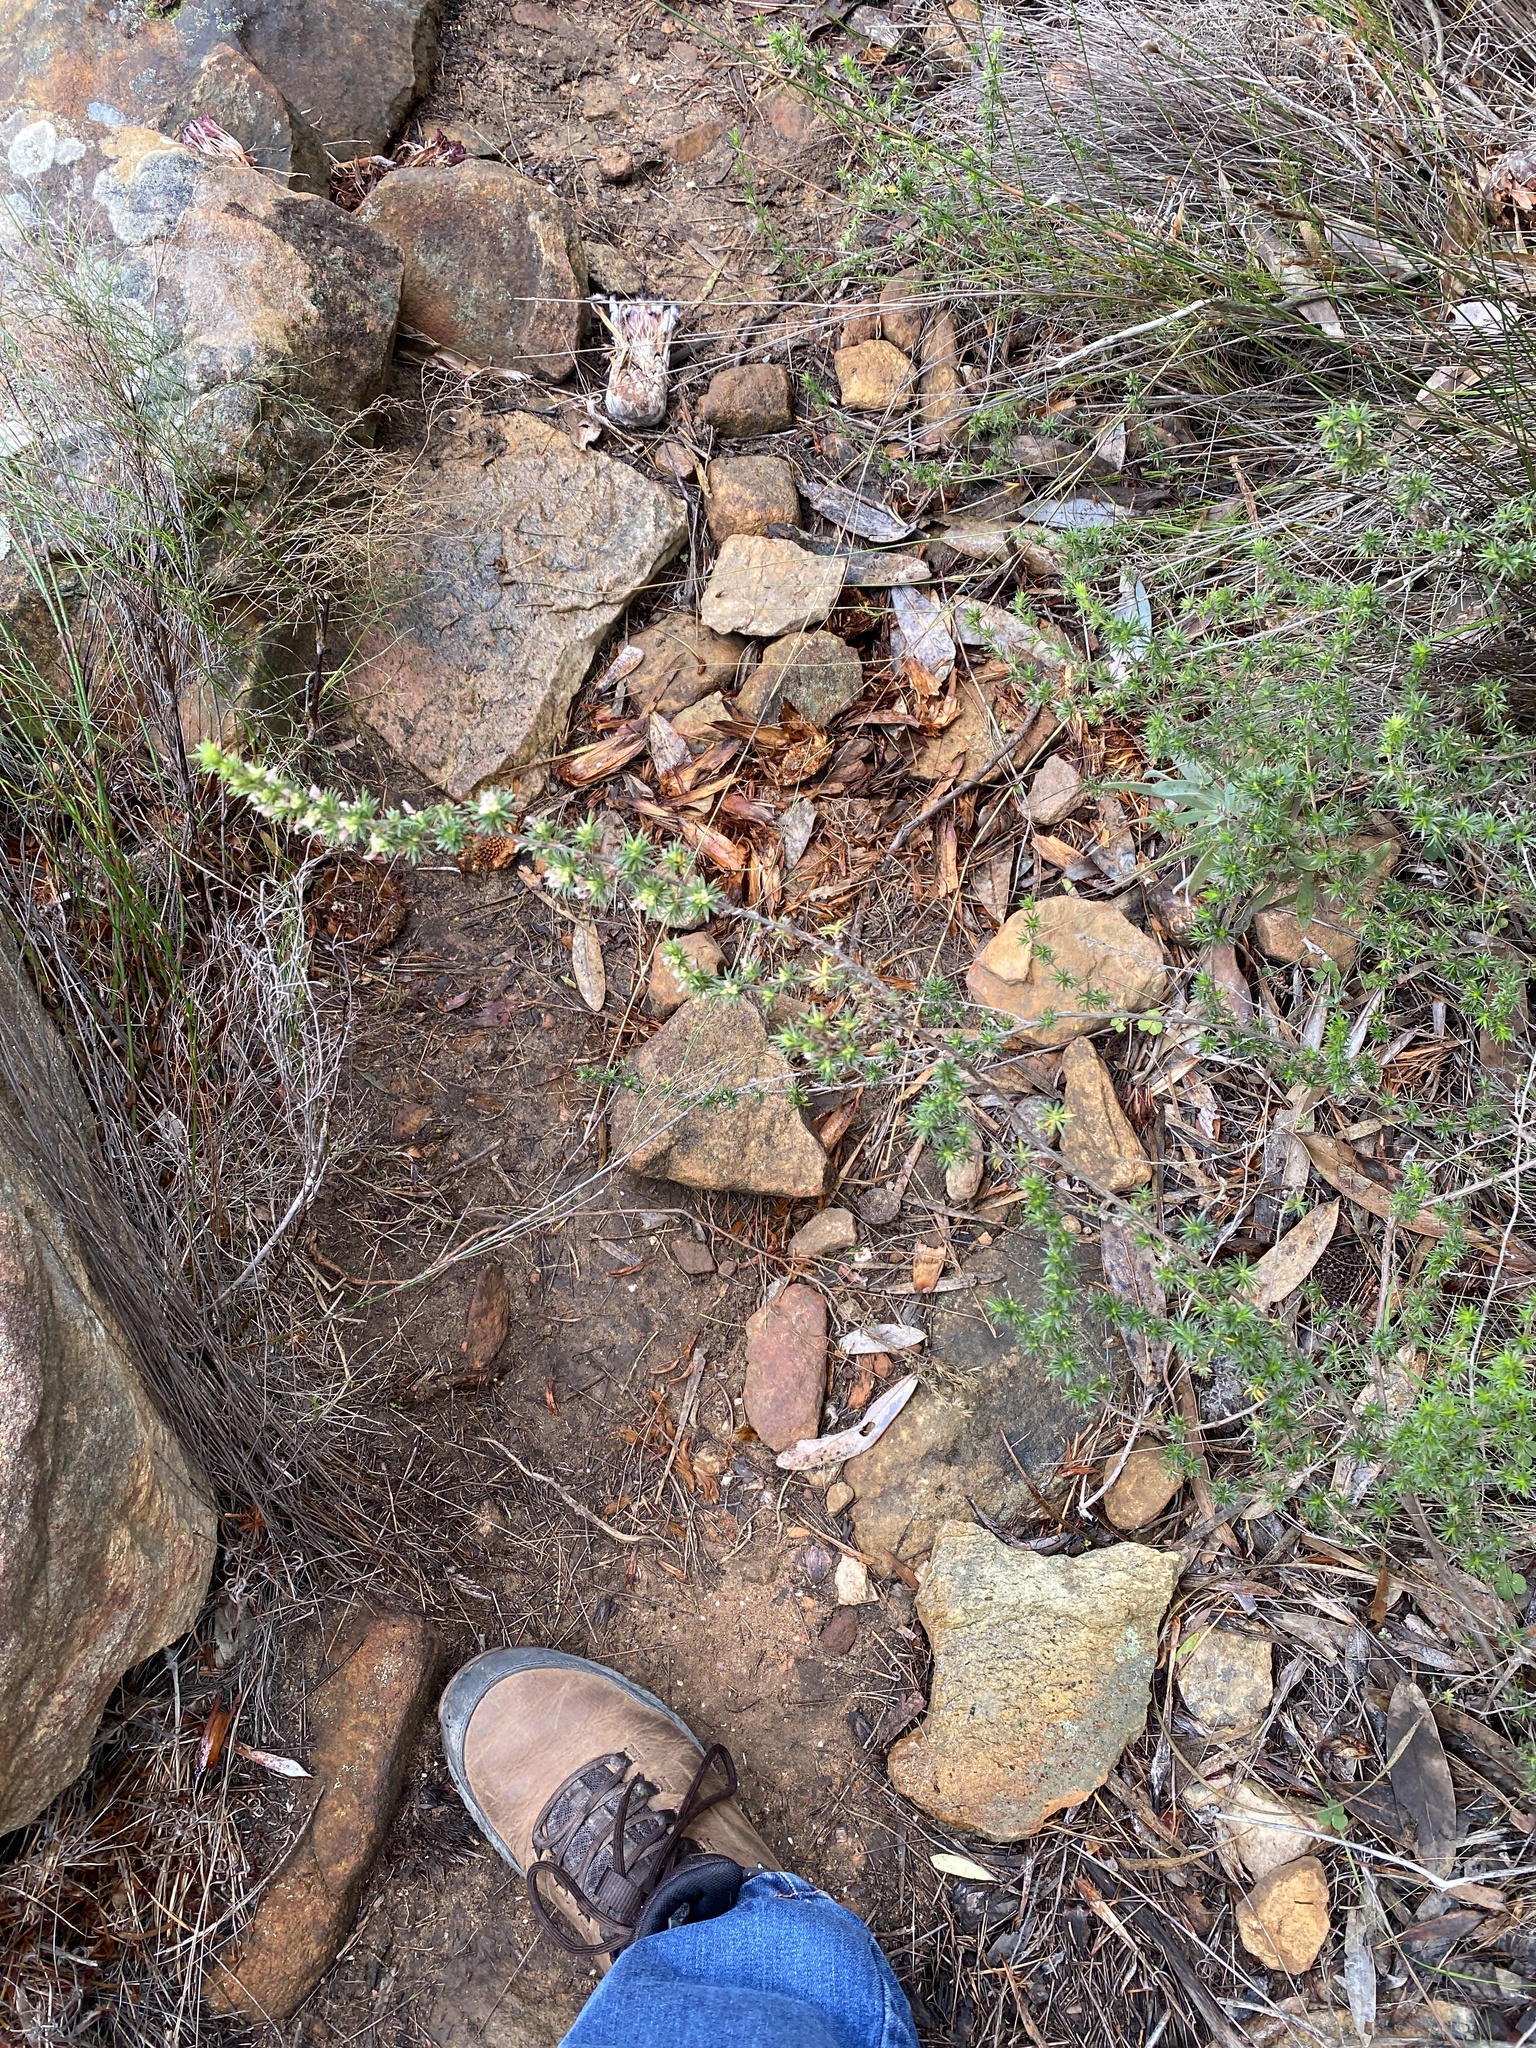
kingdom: Plantae
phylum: Tracheophyta
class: Magnoliopsida
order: Rosales
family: Rosaceae
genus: Cliffortia
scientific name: Cliffortia cristata
